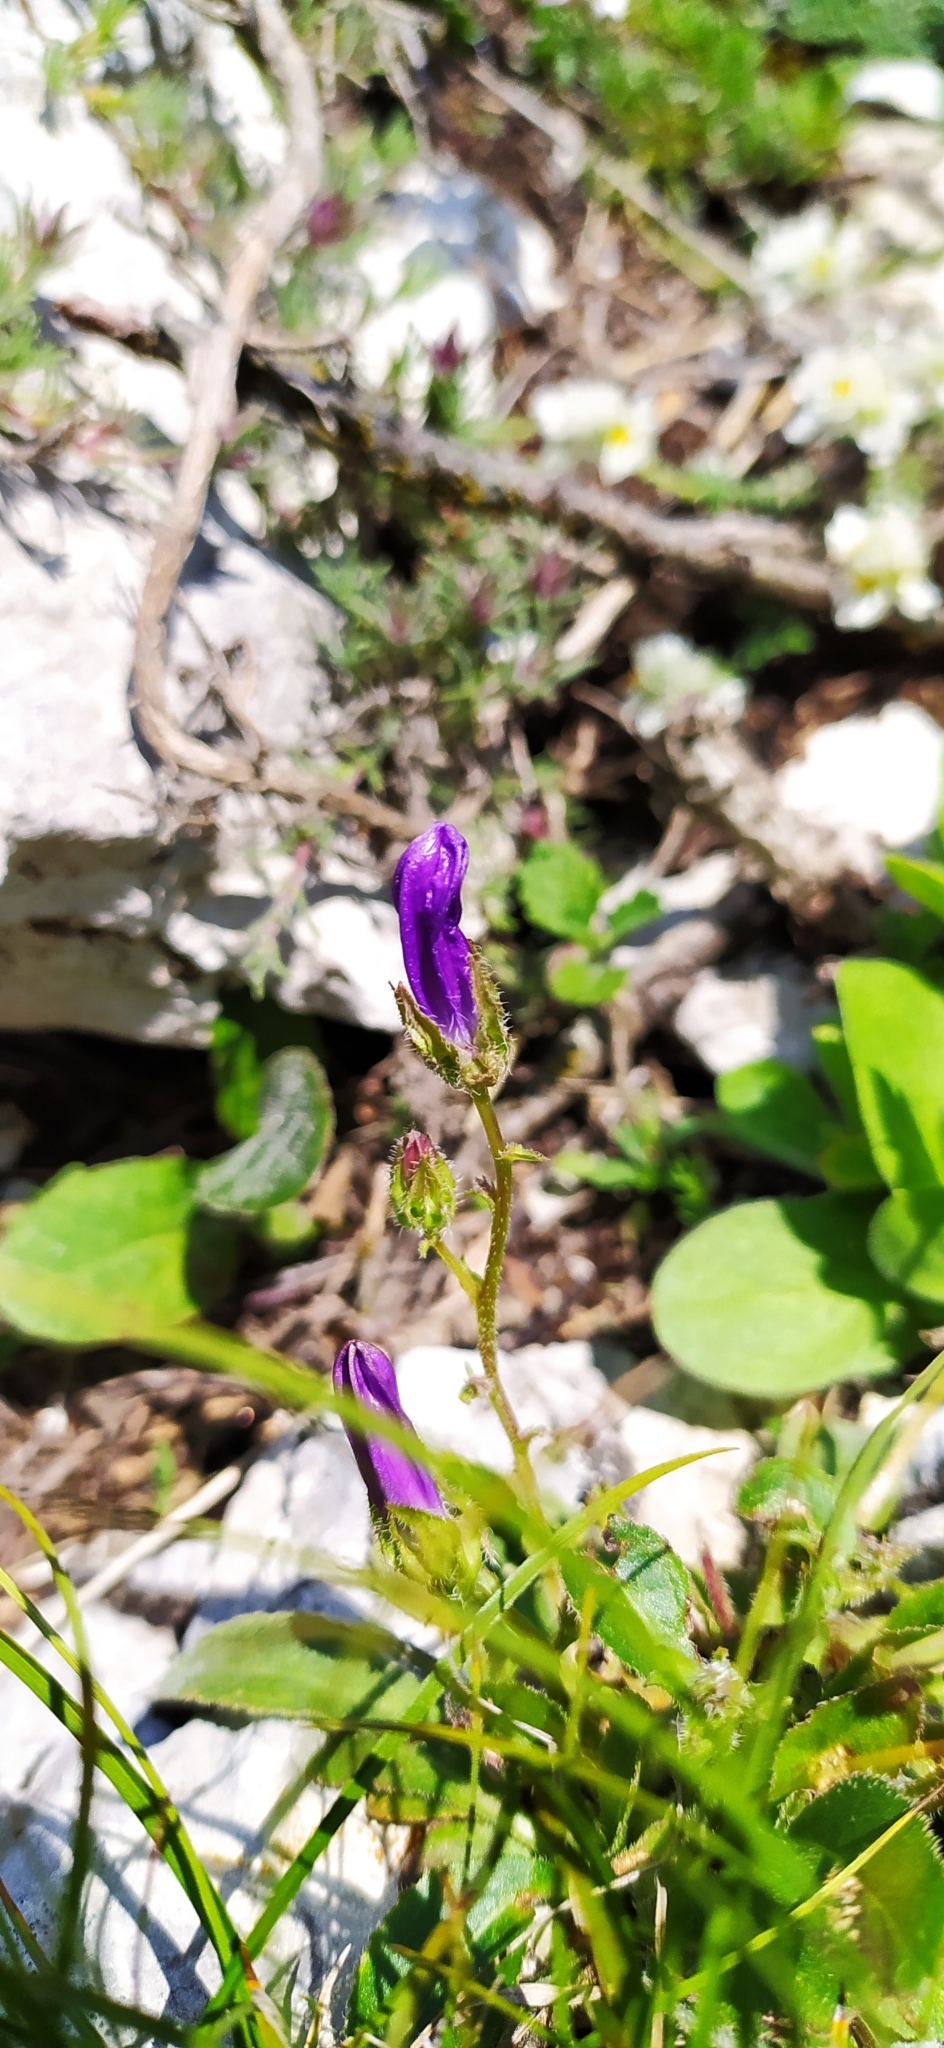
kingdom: Plantae
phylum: Tracheophyta
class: Magnoliopsida
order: Asterales
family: Campanulaceae
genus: Campanula
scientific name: Campanula sibirica
